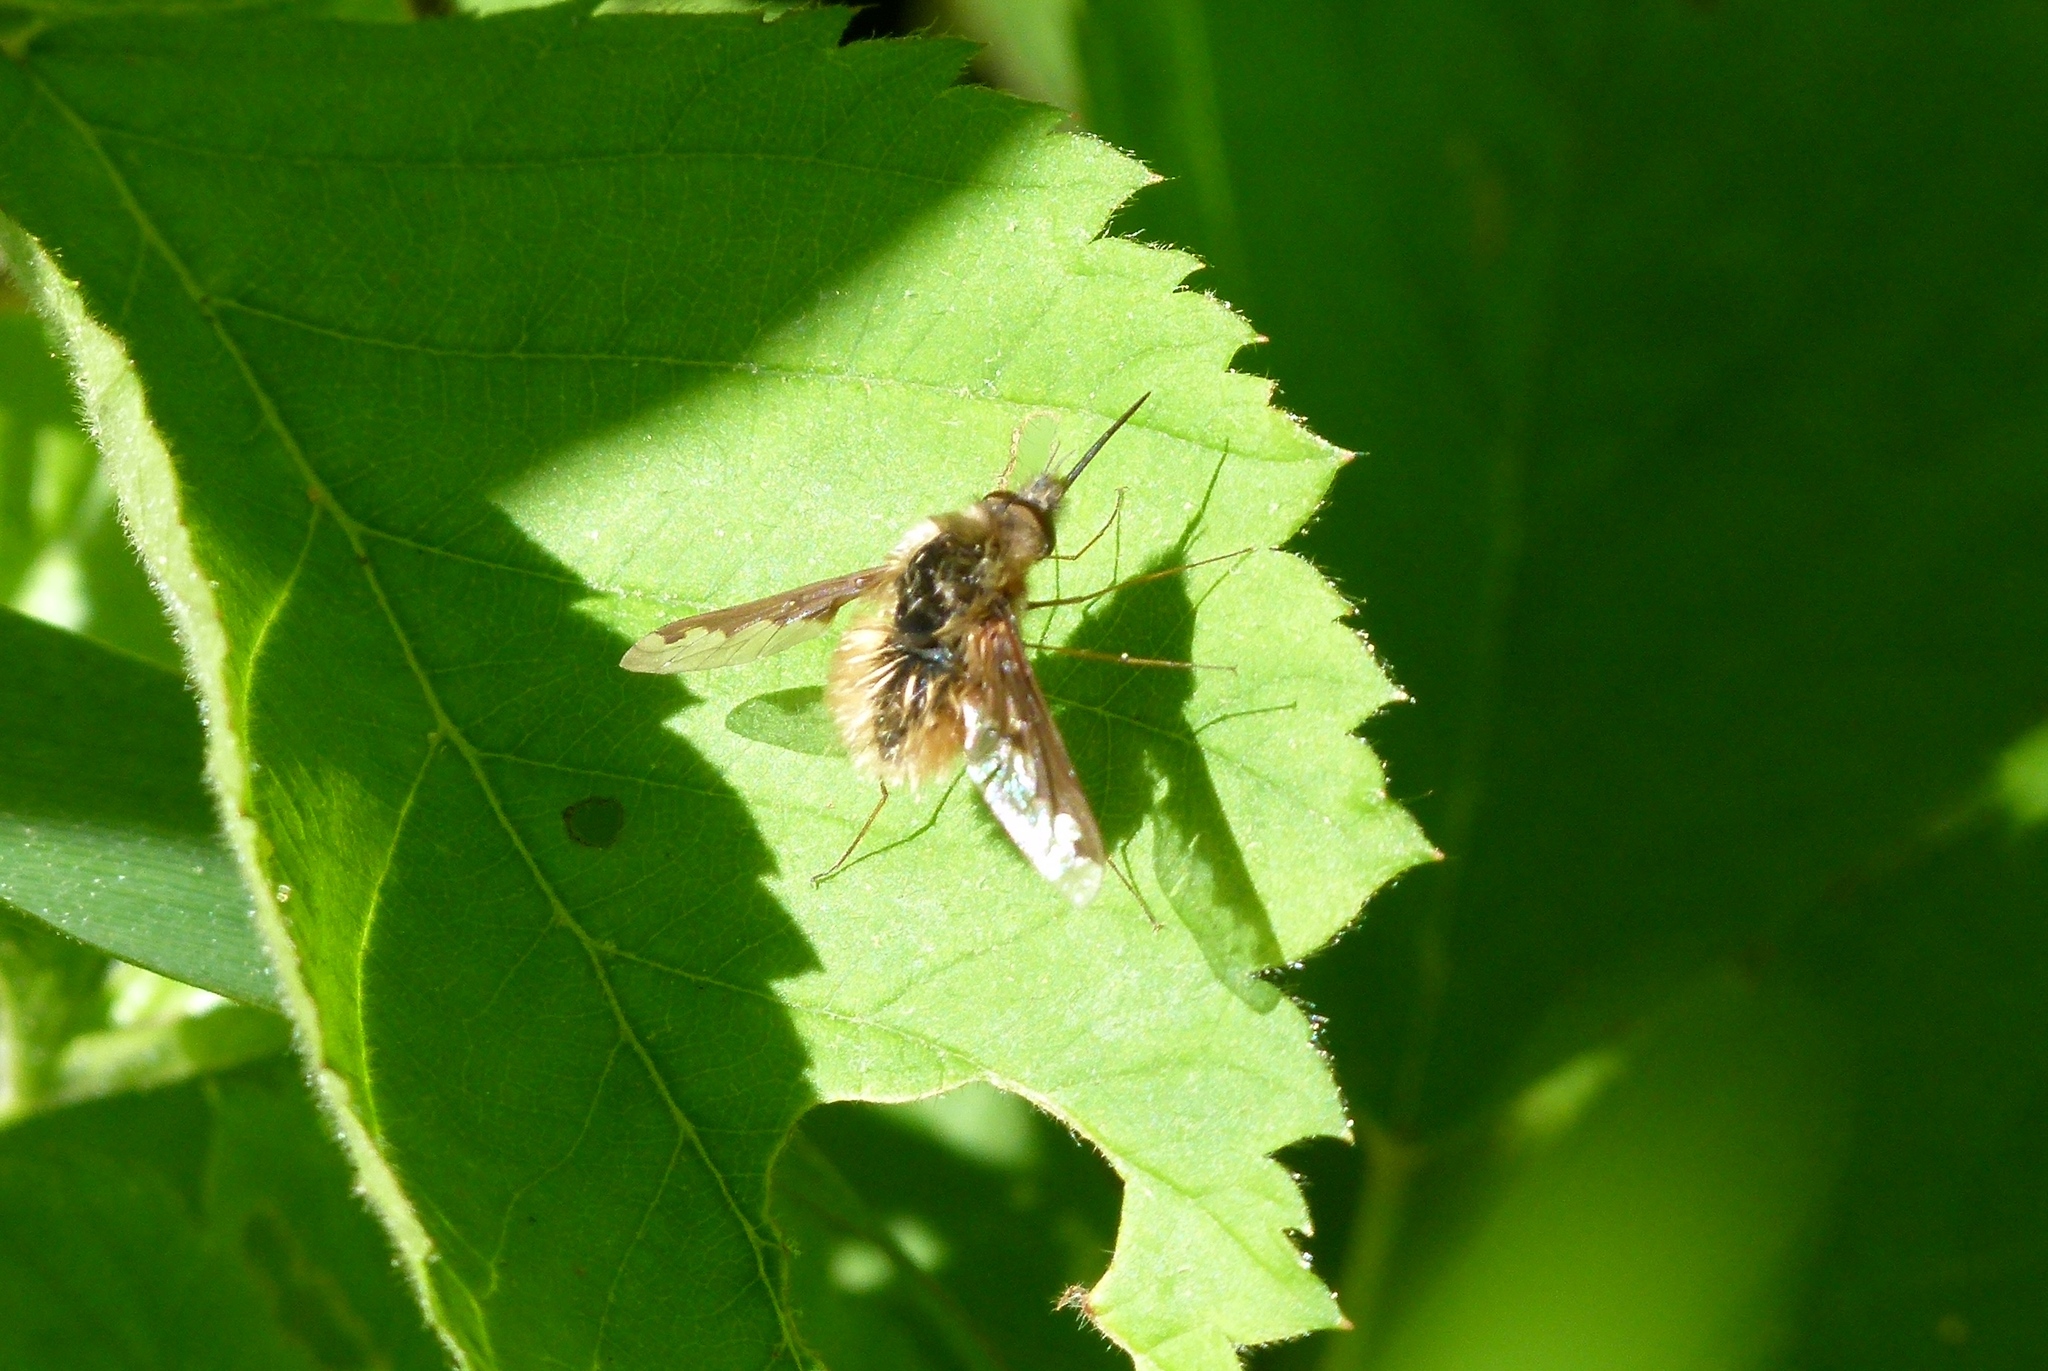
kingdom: Animalia
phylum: Arthropoda
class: Insecta
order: Diptera
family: Bombyliidae
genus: Bombylius
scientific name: Bombylius major
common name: Bee fly
